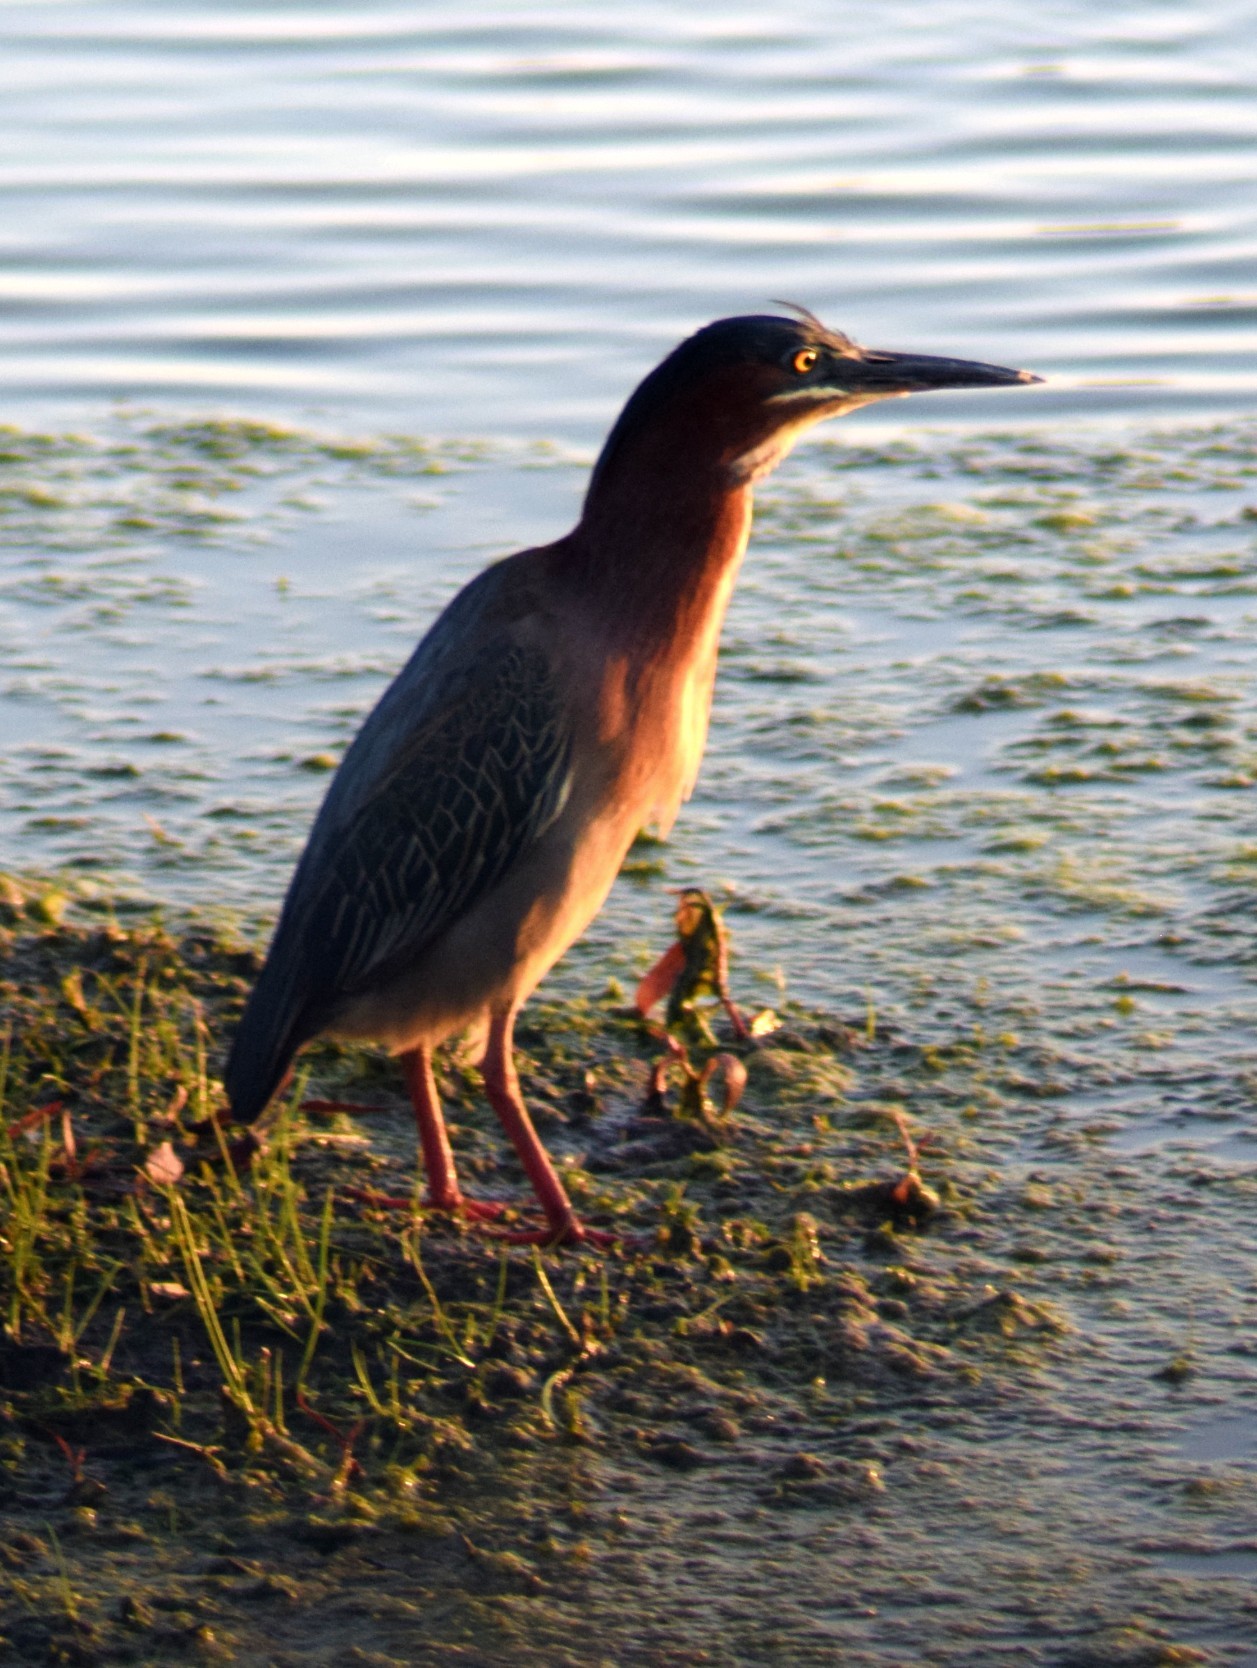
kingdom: Animalia
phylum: Chordata
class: Aves
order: Pelecaniformes
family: Ardeidae
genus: Butorides
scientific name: Butorides virescens
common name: Green heron
